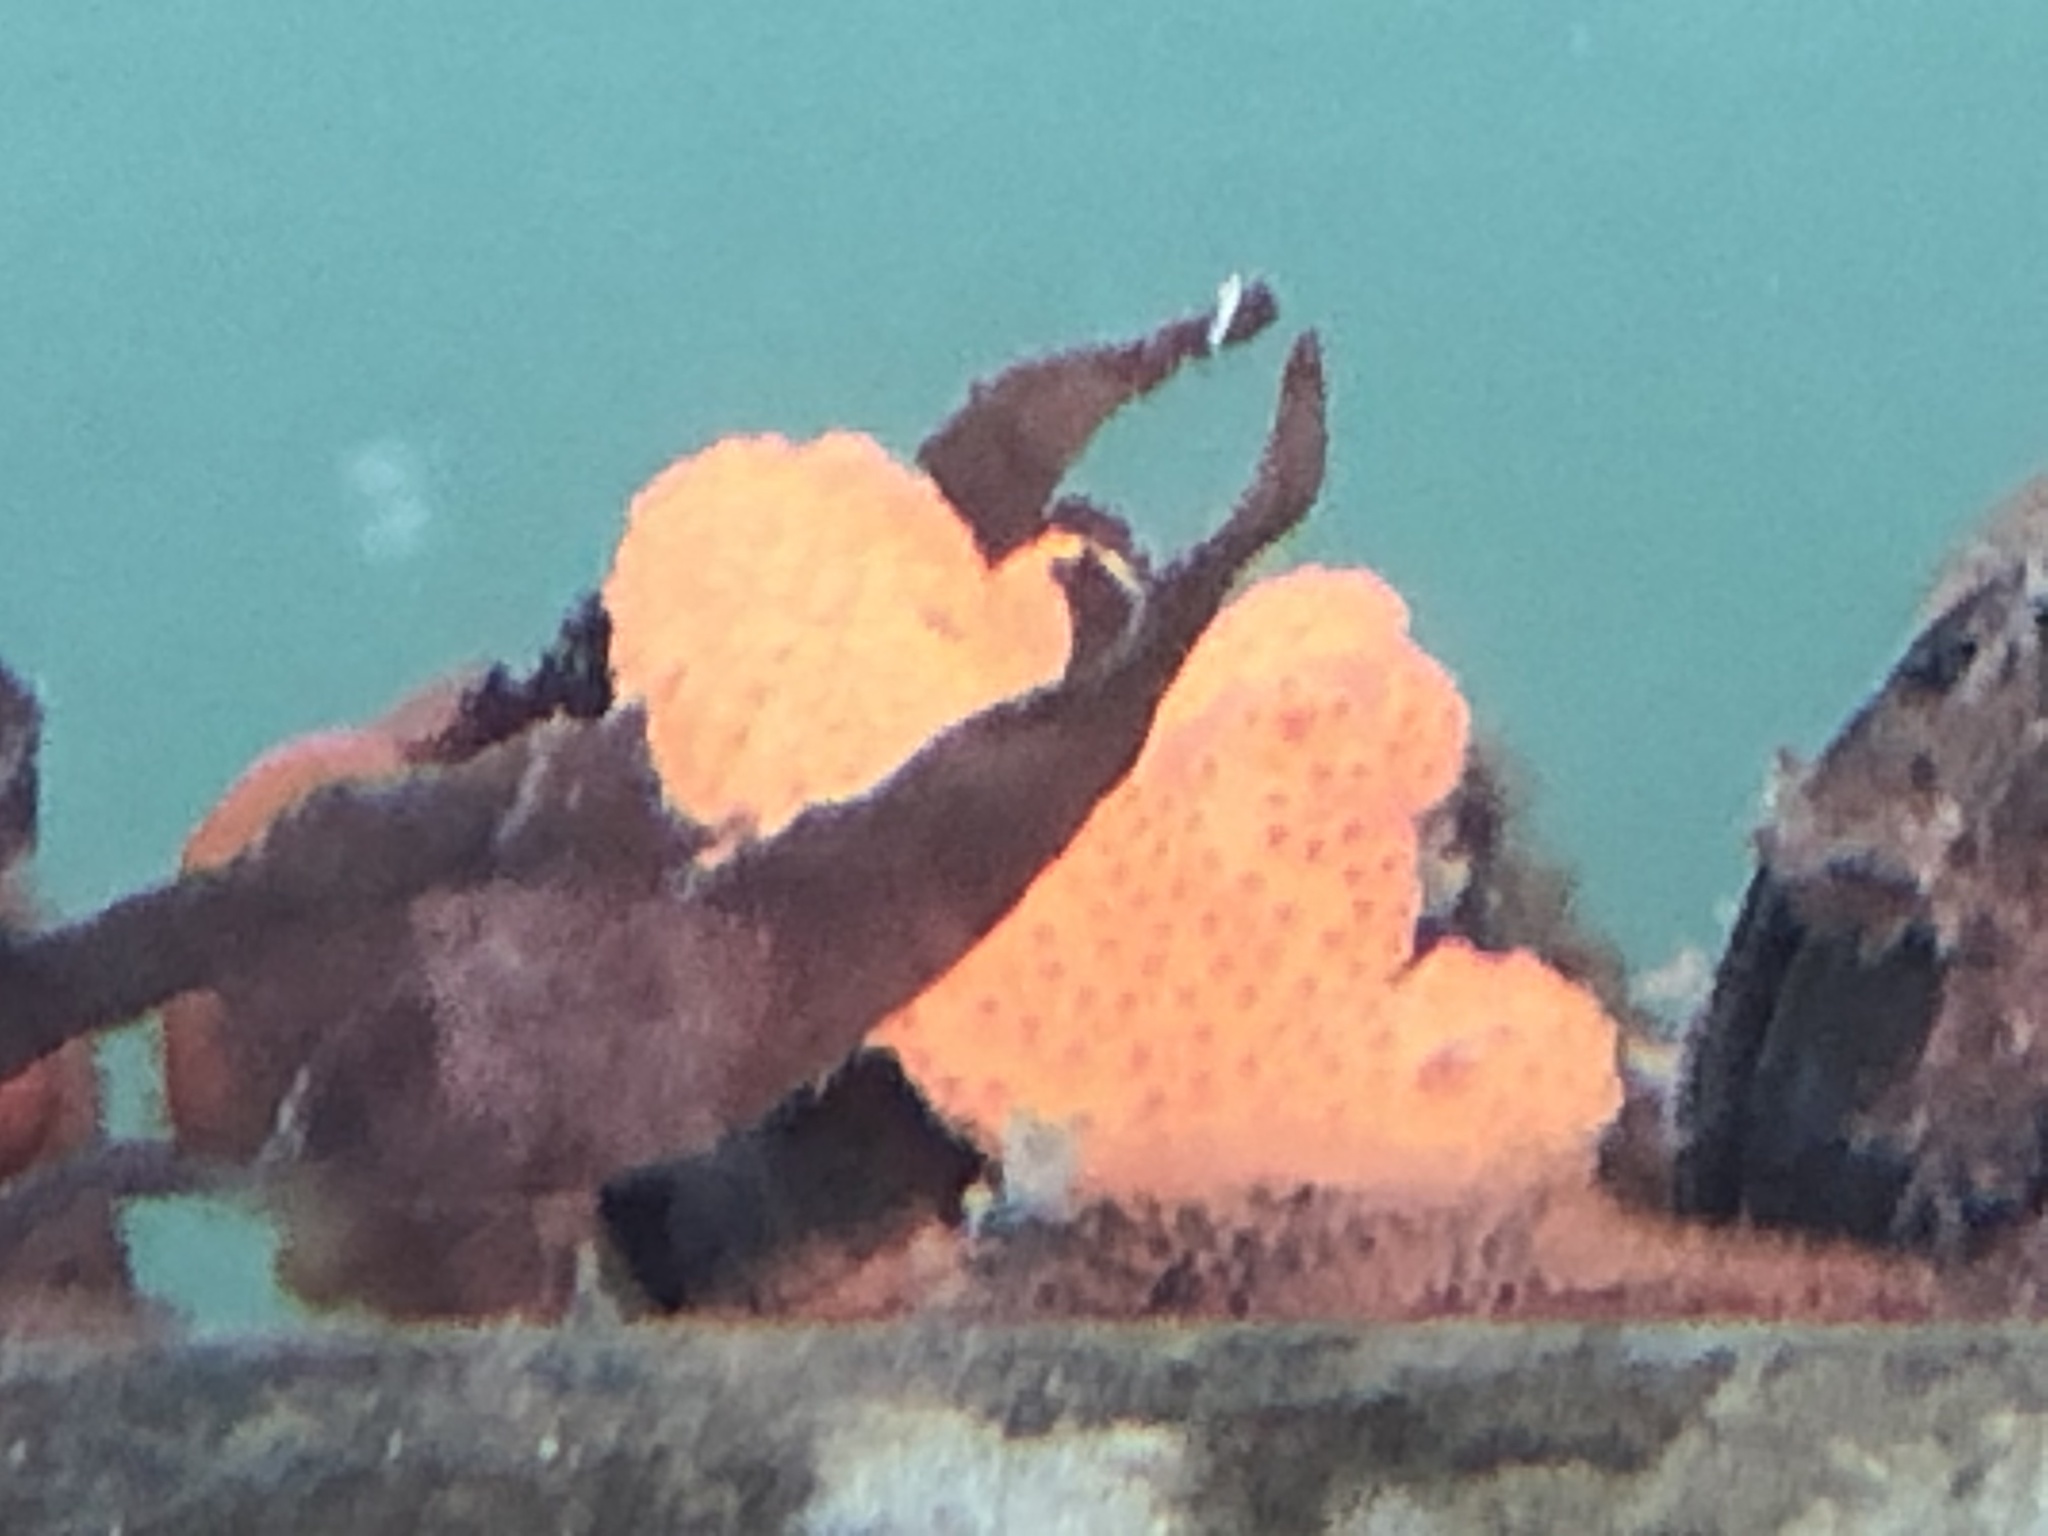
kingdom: Animalia
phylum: Chordata
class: Ascidiacea
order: Stolidobranchia
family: Styelidae
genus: Botrylloides
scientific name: Botrylloides violaceus
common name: Colonial sea squirt
